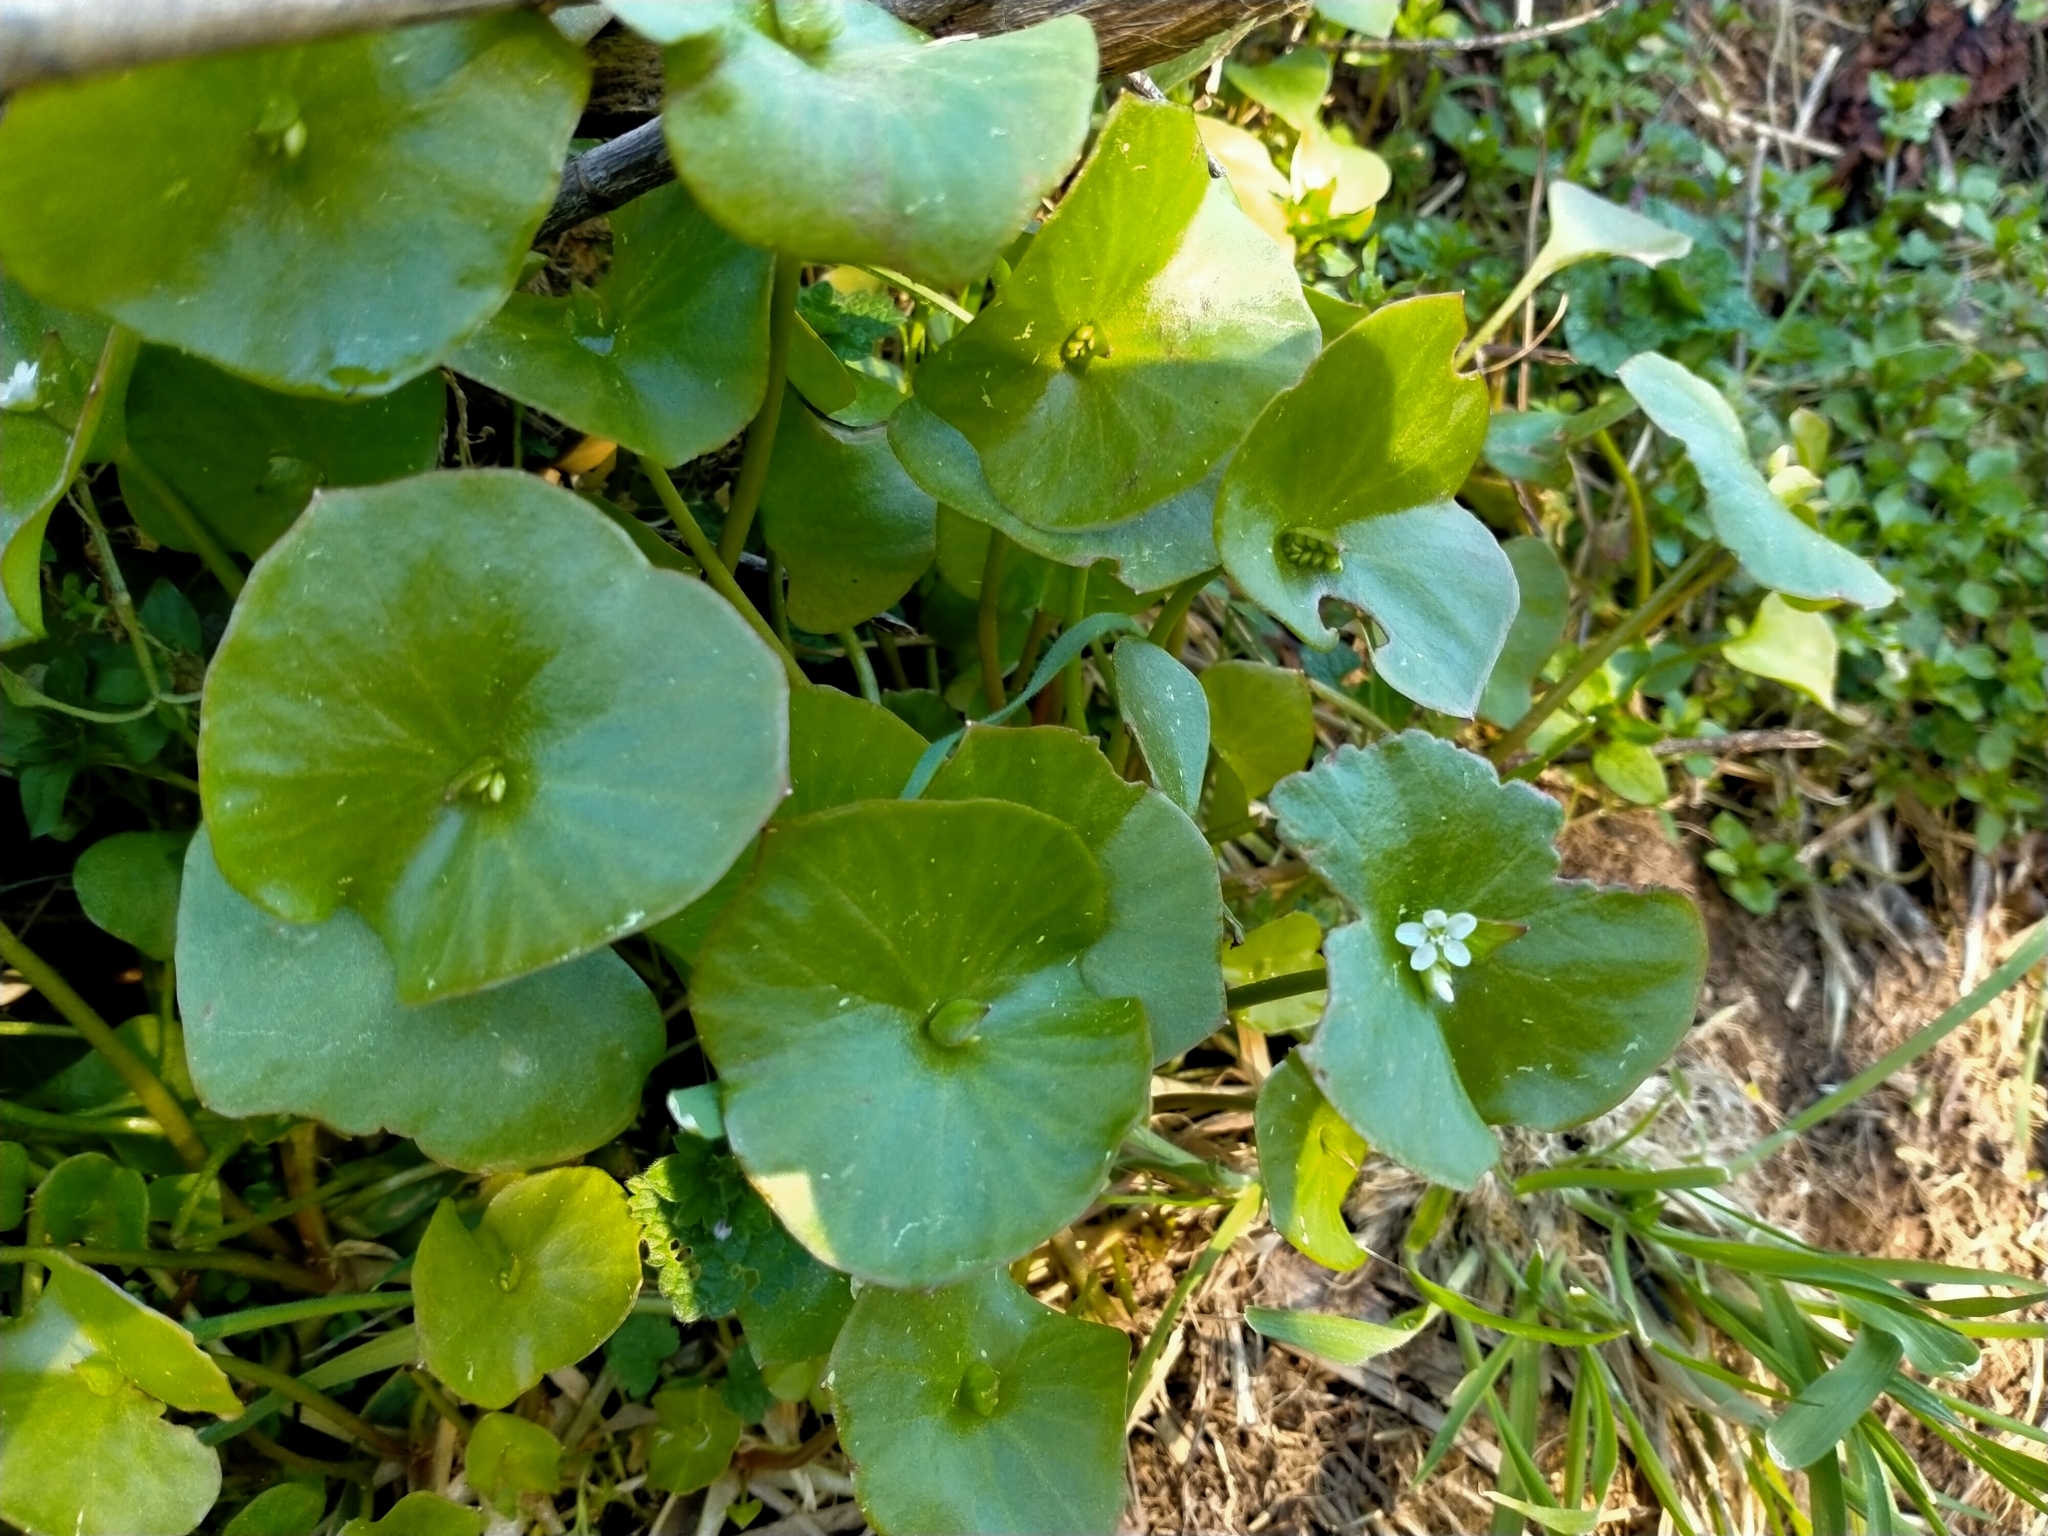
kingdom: Plantae
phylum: Tracheophyta
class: Magnoliopsida
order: Caryophyllales
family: Montiaceae
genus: Claytonia
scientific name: Claytonia perfoliata
